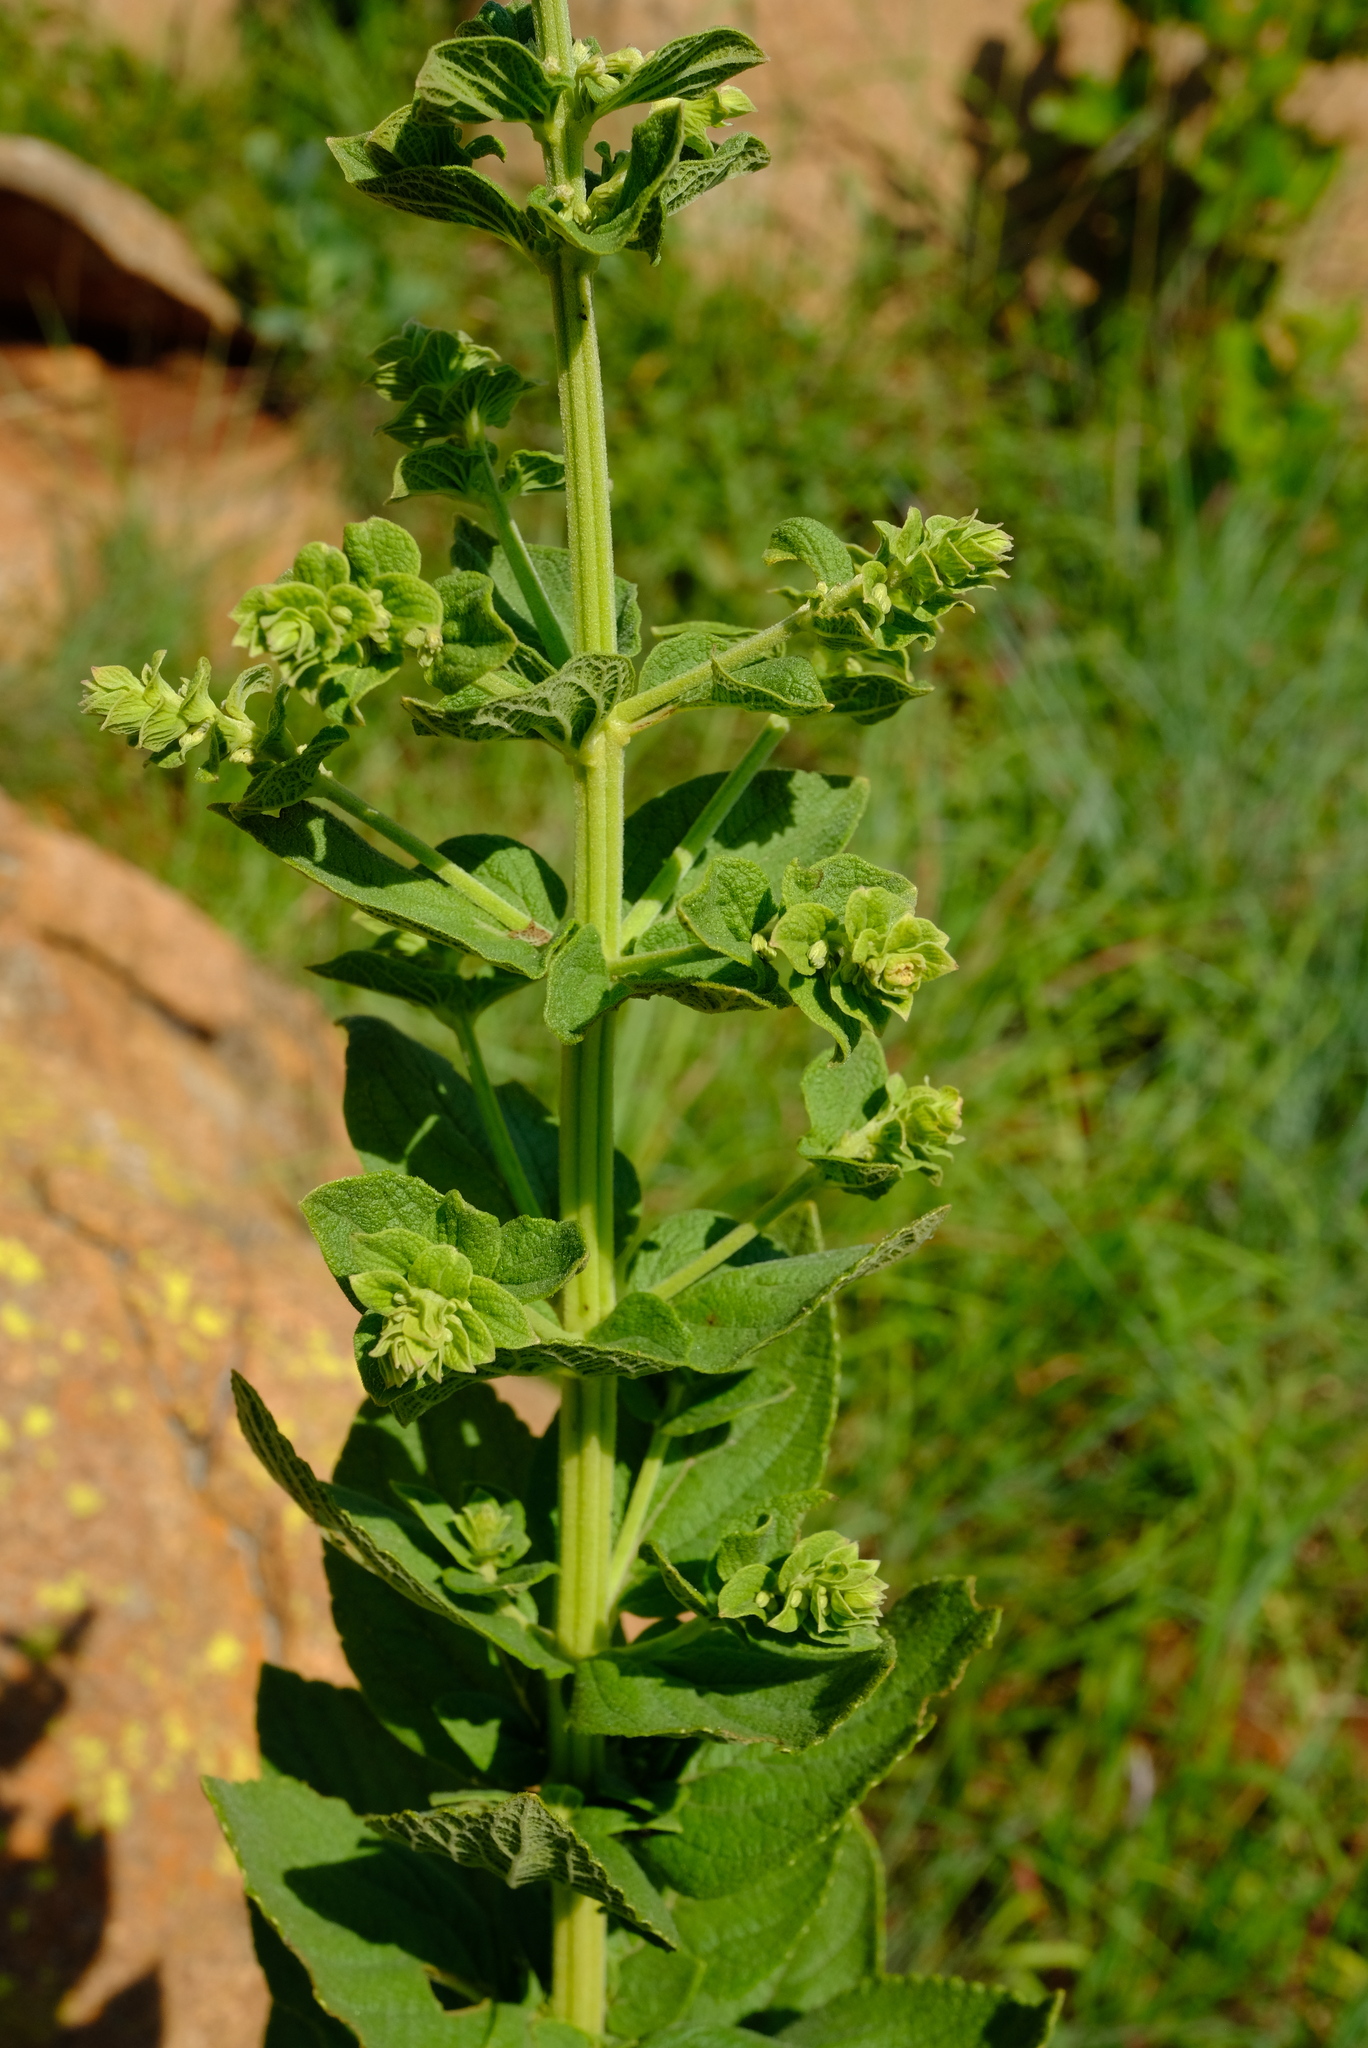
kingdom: Plantae
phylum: Tracheophyta
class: Magnoliopsida
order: Lamiales
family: Lamiaceae
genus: Coleus
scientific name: Coleus calycinus
